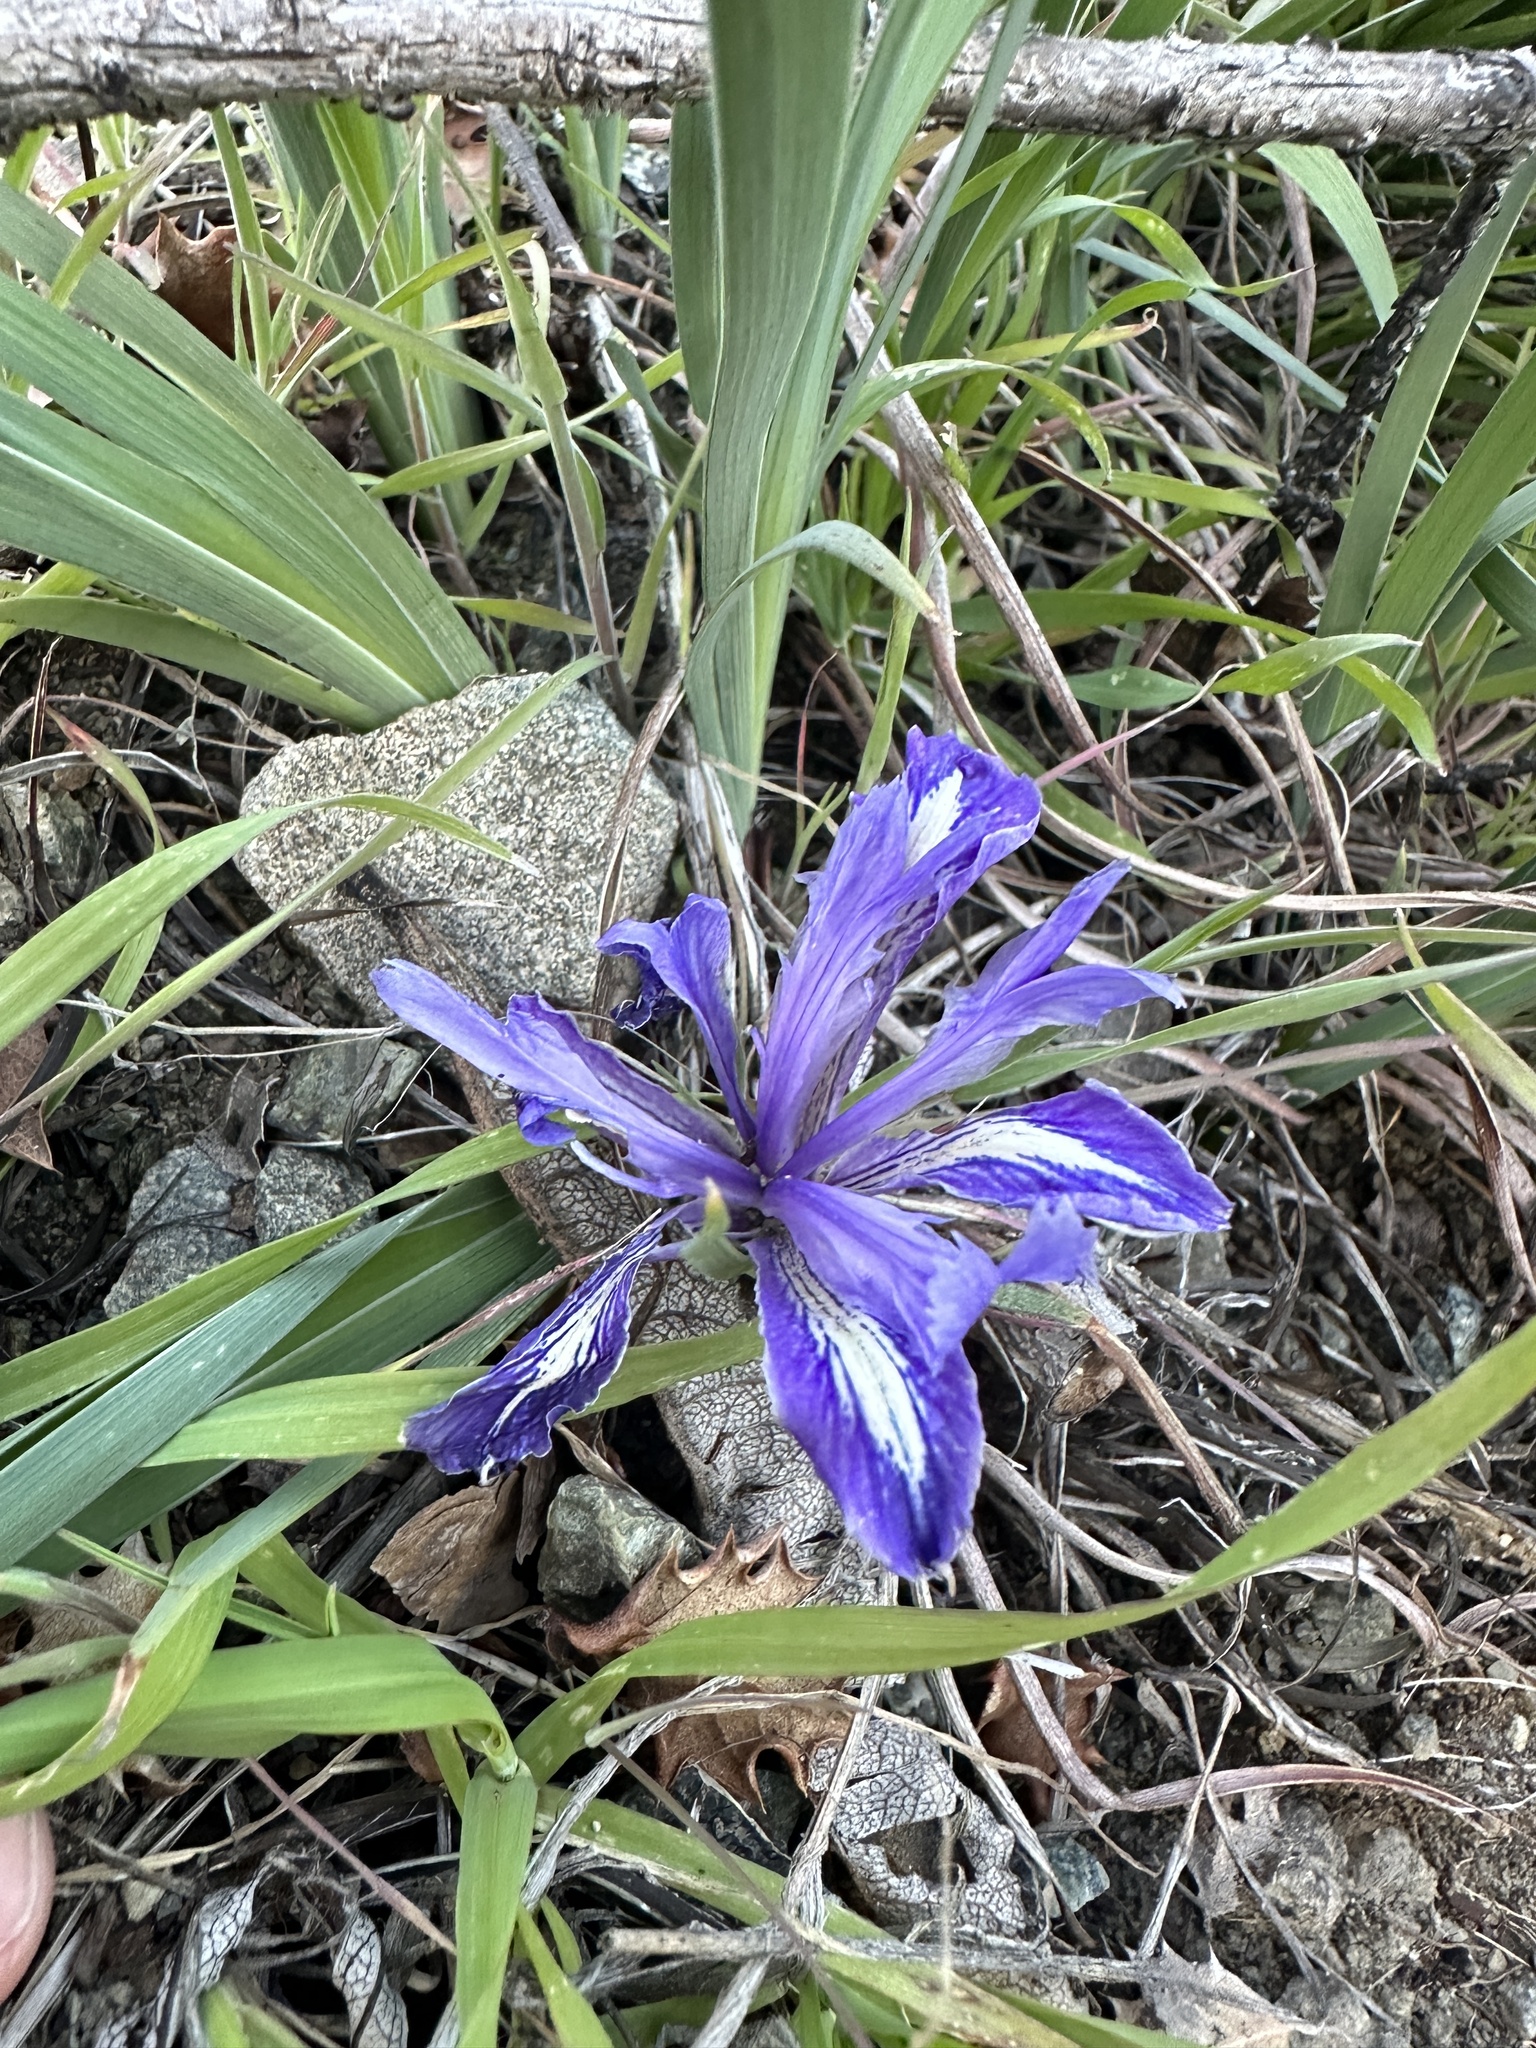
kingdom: Plantae
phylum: Tracheophyta
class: Liliopsida
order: Asparagales
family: Iridaceae
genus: Iris
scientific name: Iris macrosiphon
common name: Ground iris
